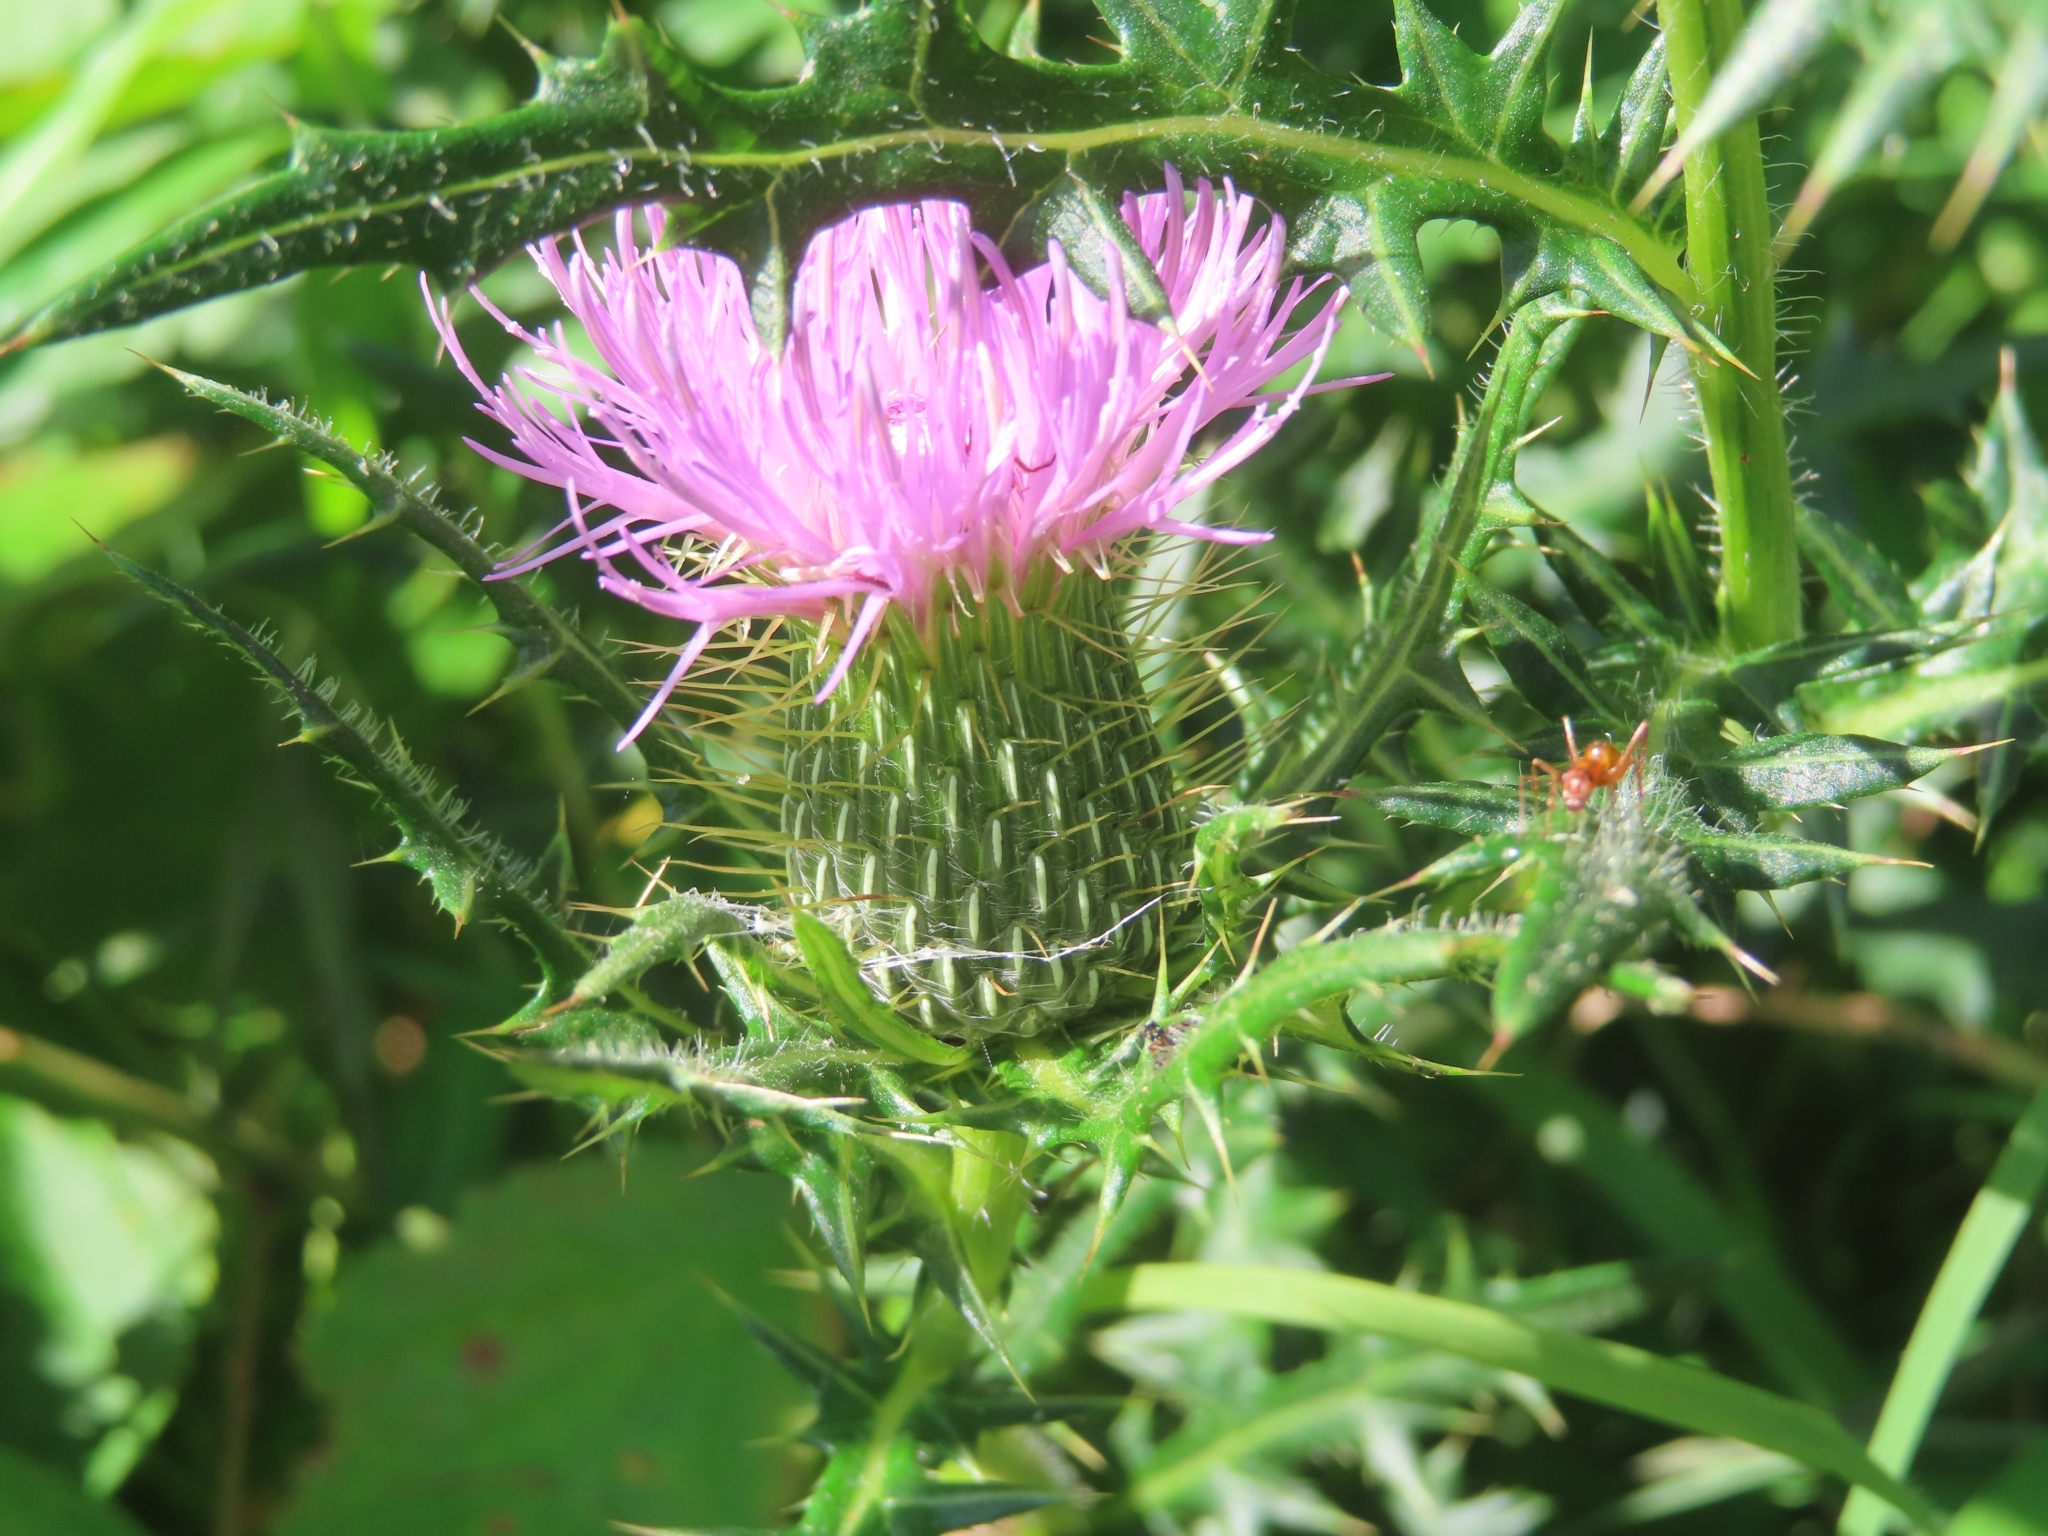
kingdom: Plantae
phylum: Tracheophyta
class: Magnoliopsida
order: Asterales
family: Asteraceae
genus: Cirsium
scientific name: Cirsium discolor
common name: Field thistle
